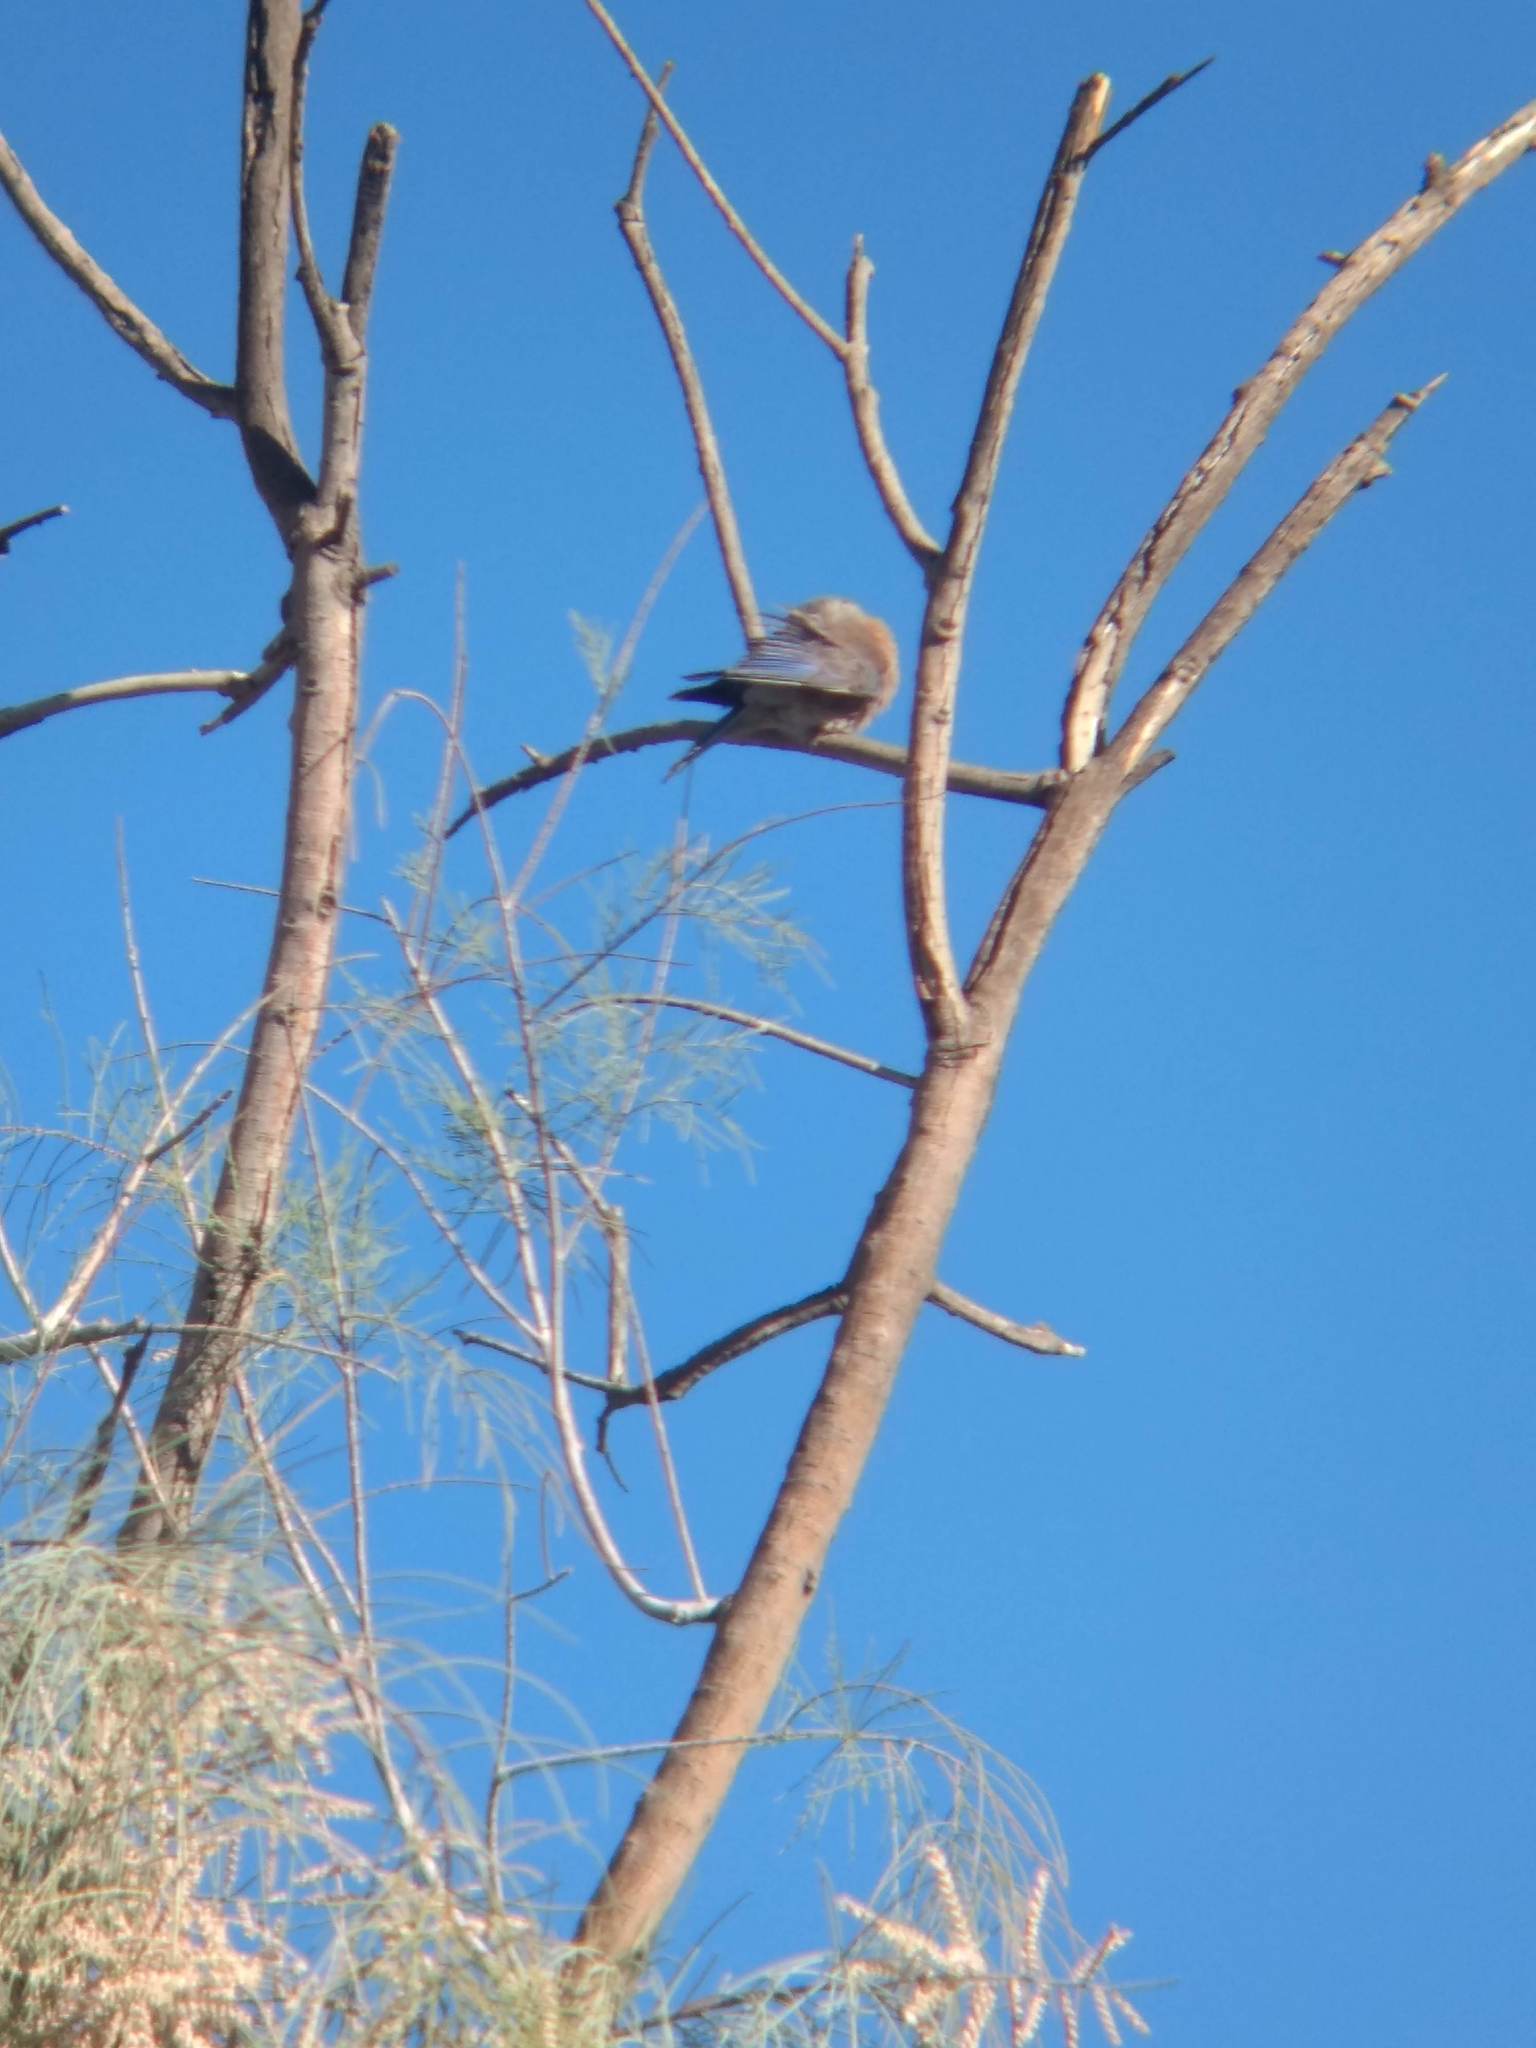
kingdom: Animalia
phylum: Chordata
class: Aves
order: Passeriformes
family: Turdidae
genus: Sialia
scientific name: Sialia mexicana
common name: Western bluebird
